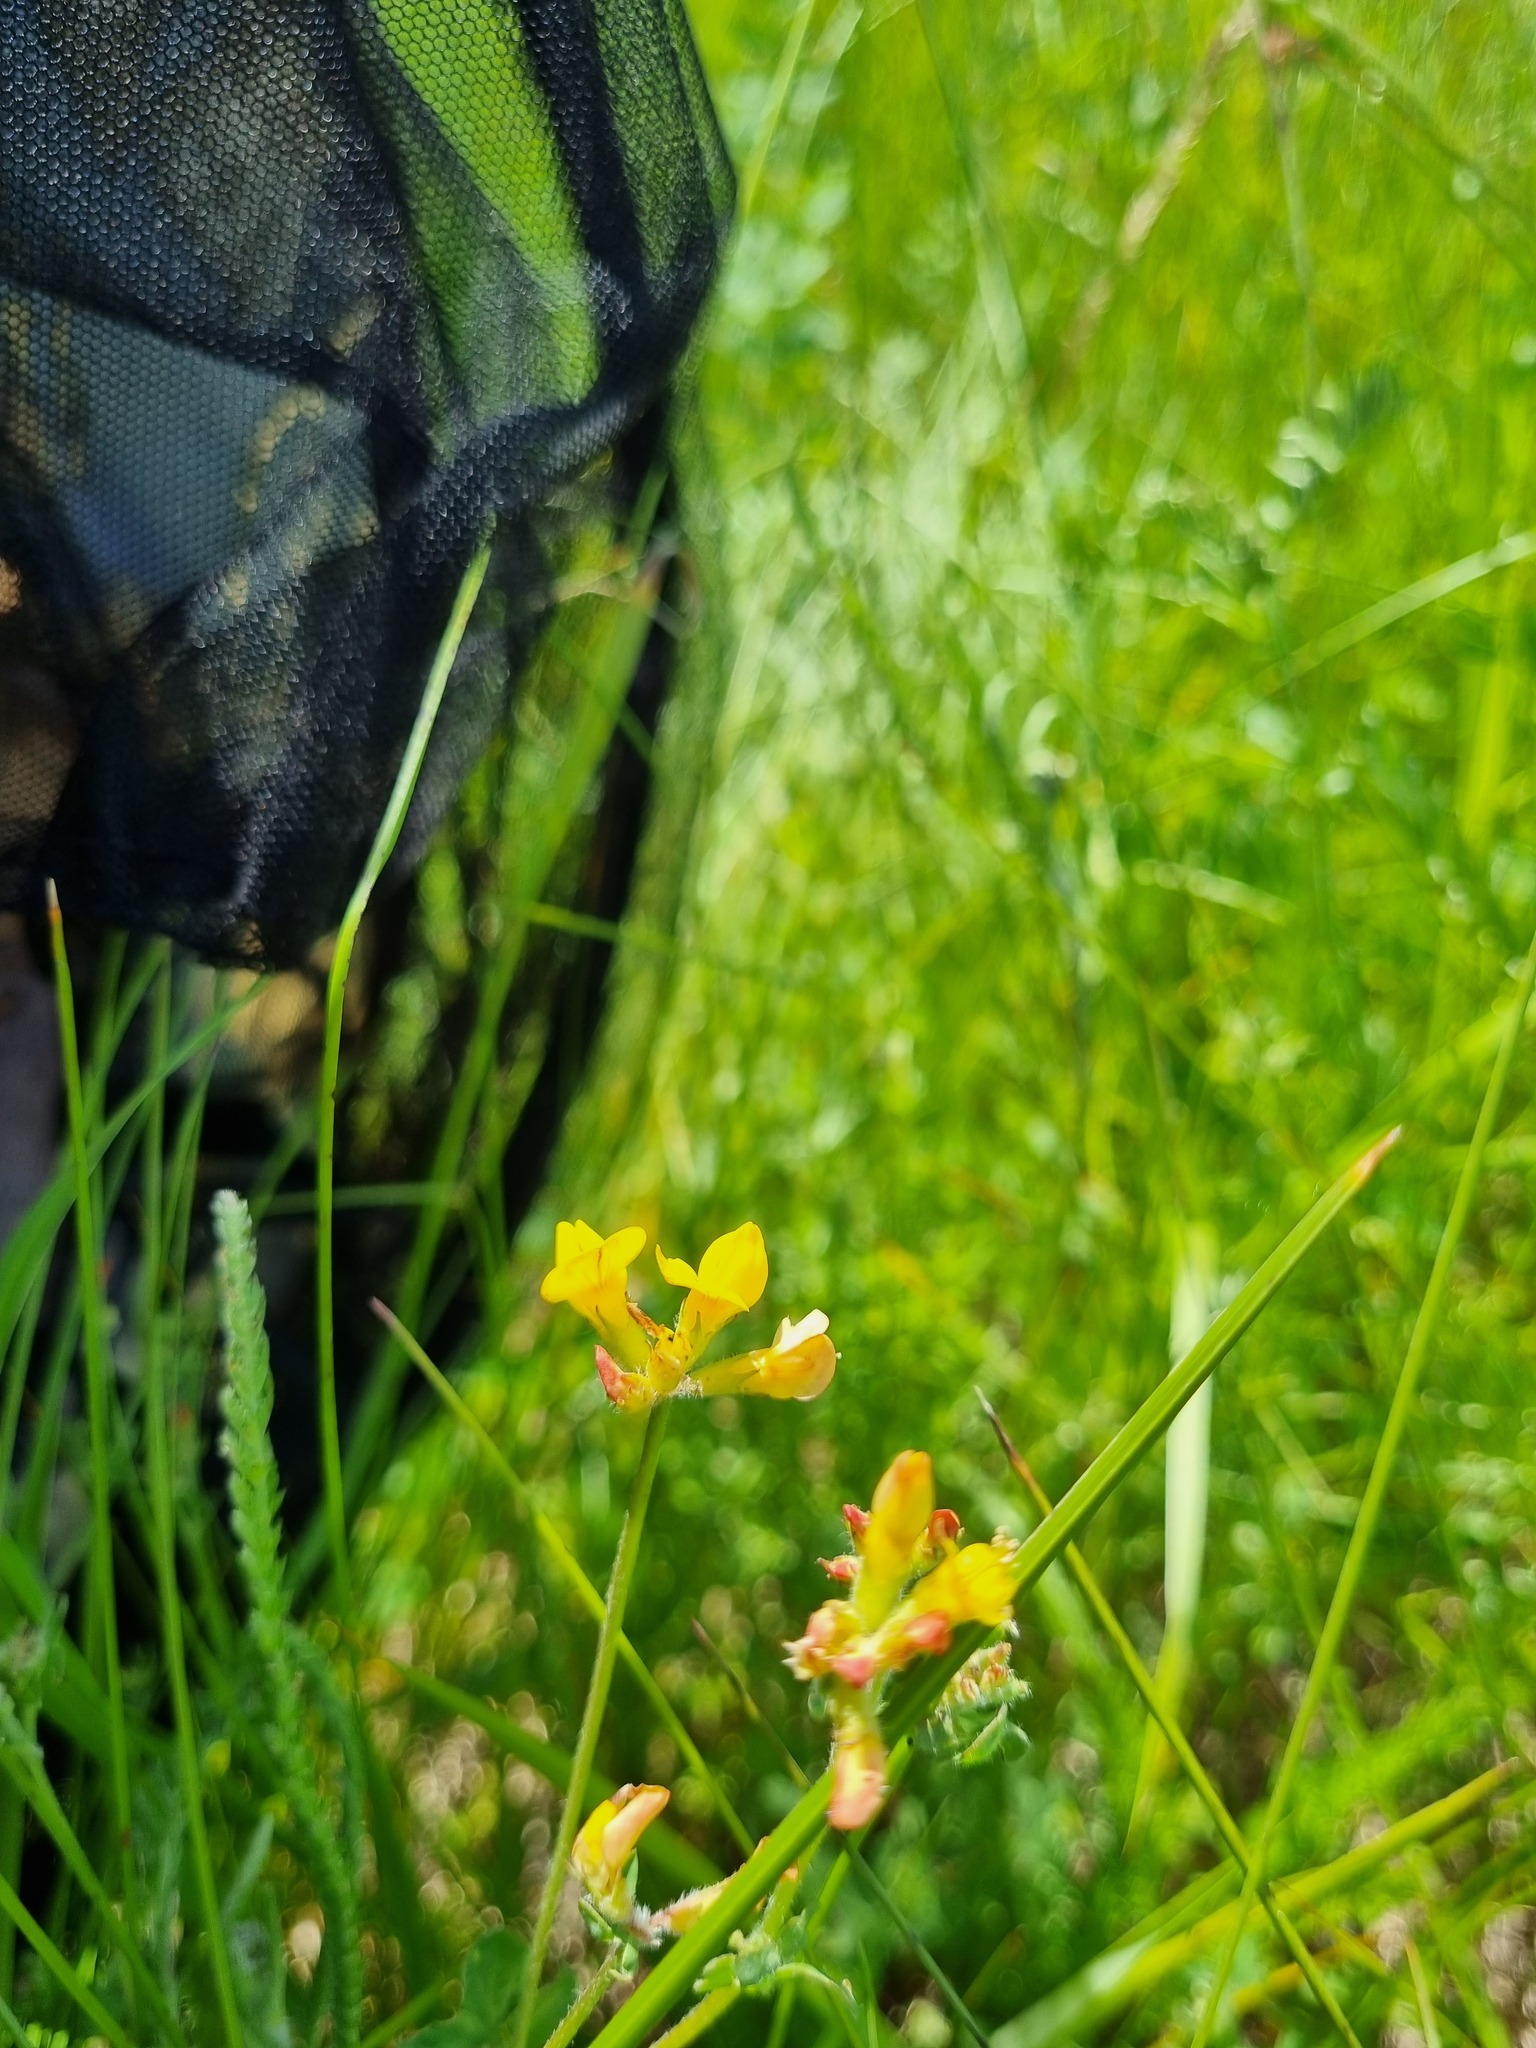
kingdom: Plantae
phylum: Tracheophyta
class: Magnoliopsida
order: Fabales
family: Fabaceae
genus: Lotus
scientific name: Lotus corniculatus
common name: Common bird's-foot-trefoil
